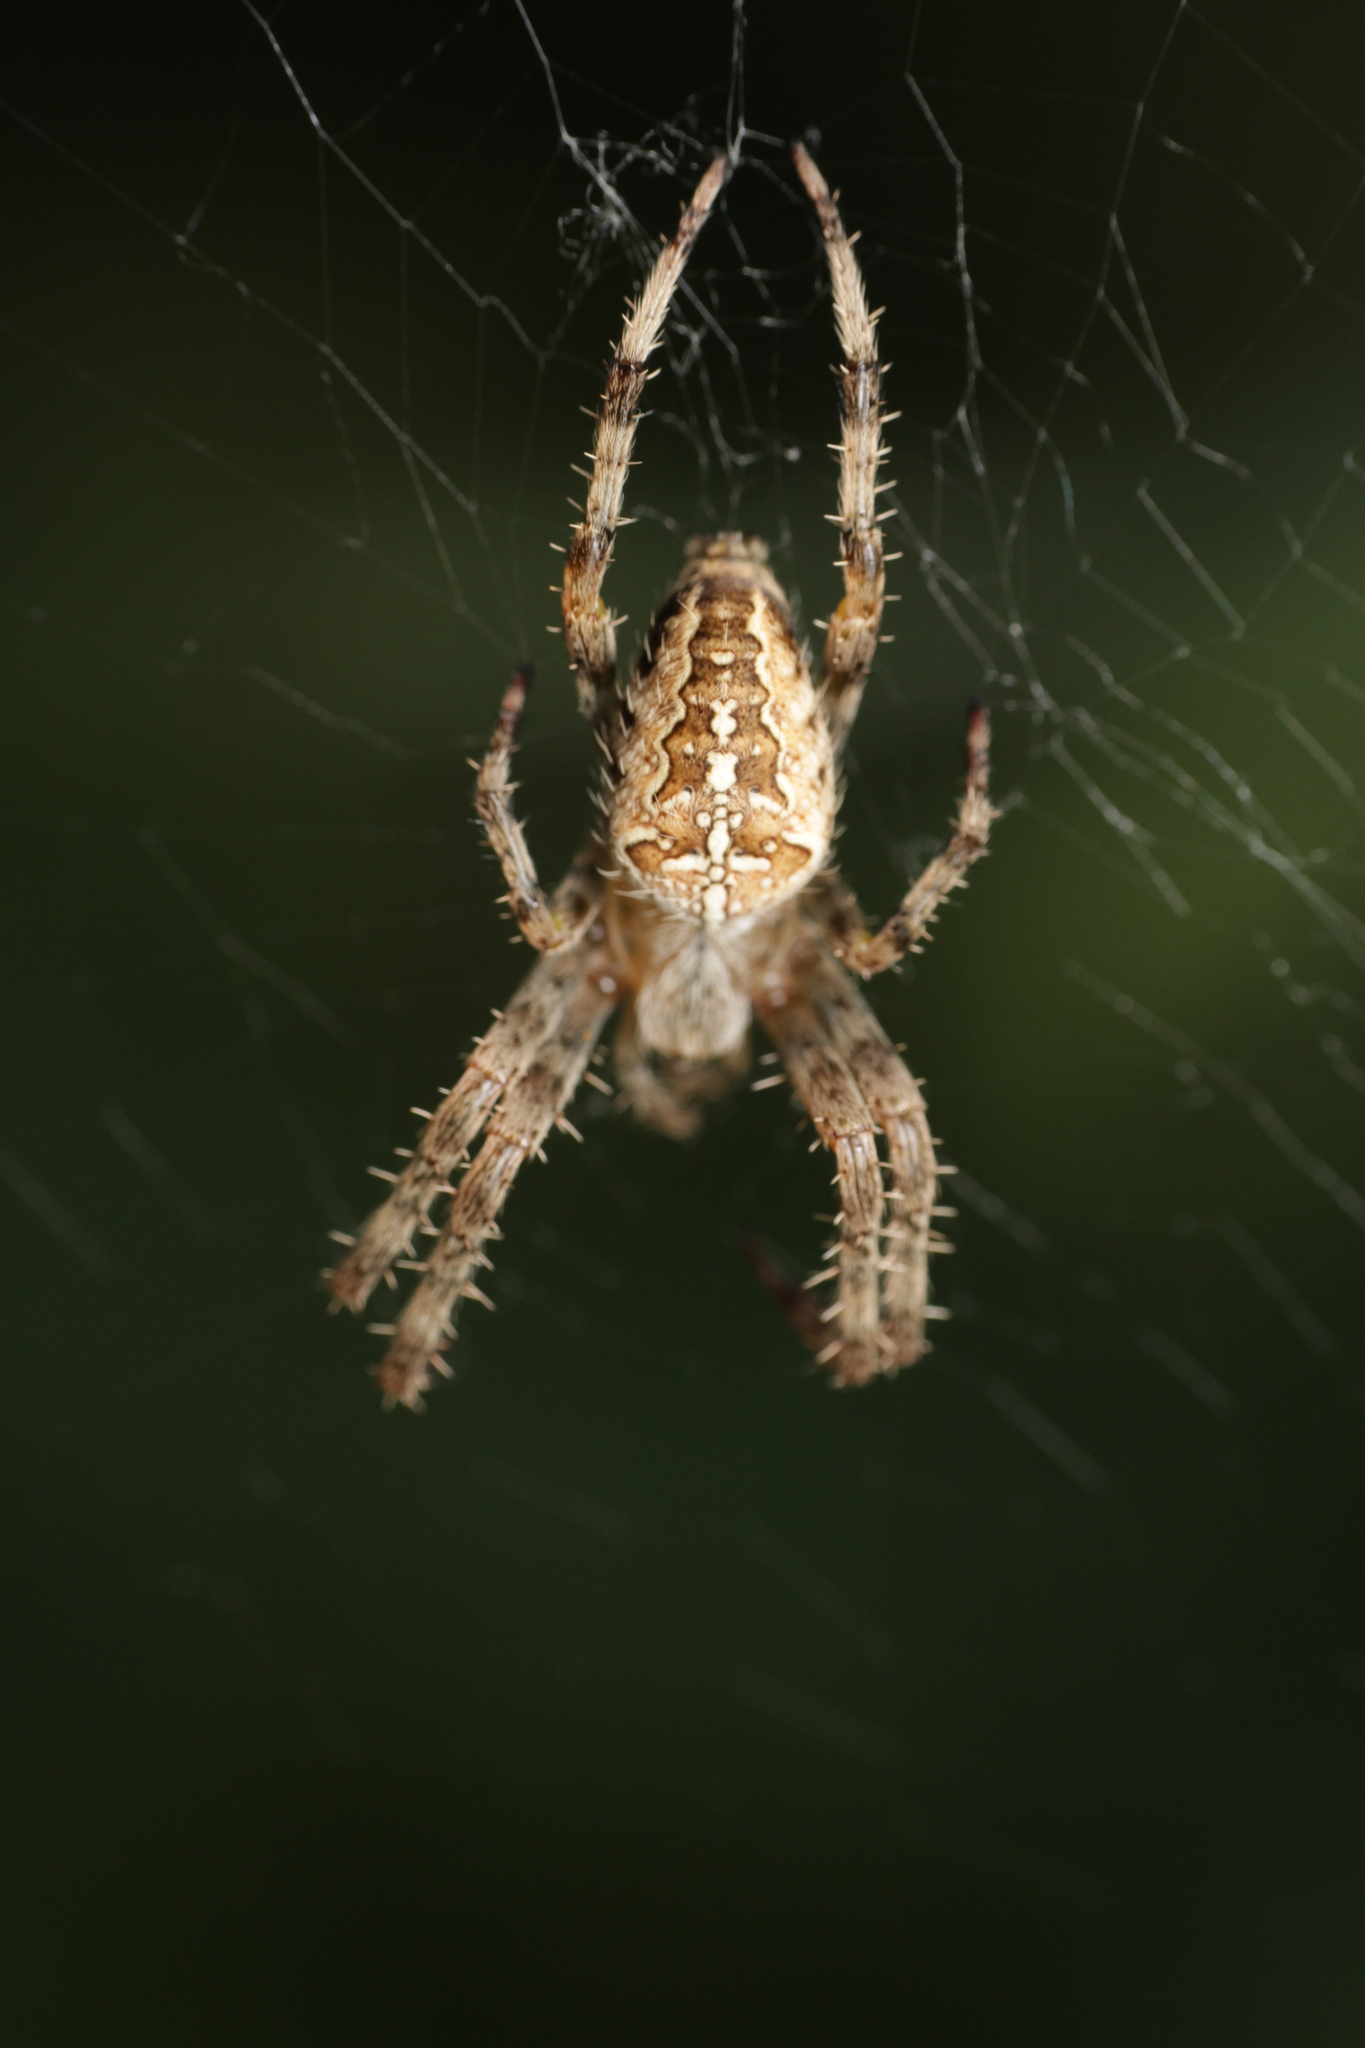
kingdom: Animalia
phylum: Arthropoda
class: Arachnida
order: Araneae
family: Araneidae
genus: Araneus
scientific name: Araneus diadematus
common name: Cross orbweaver
